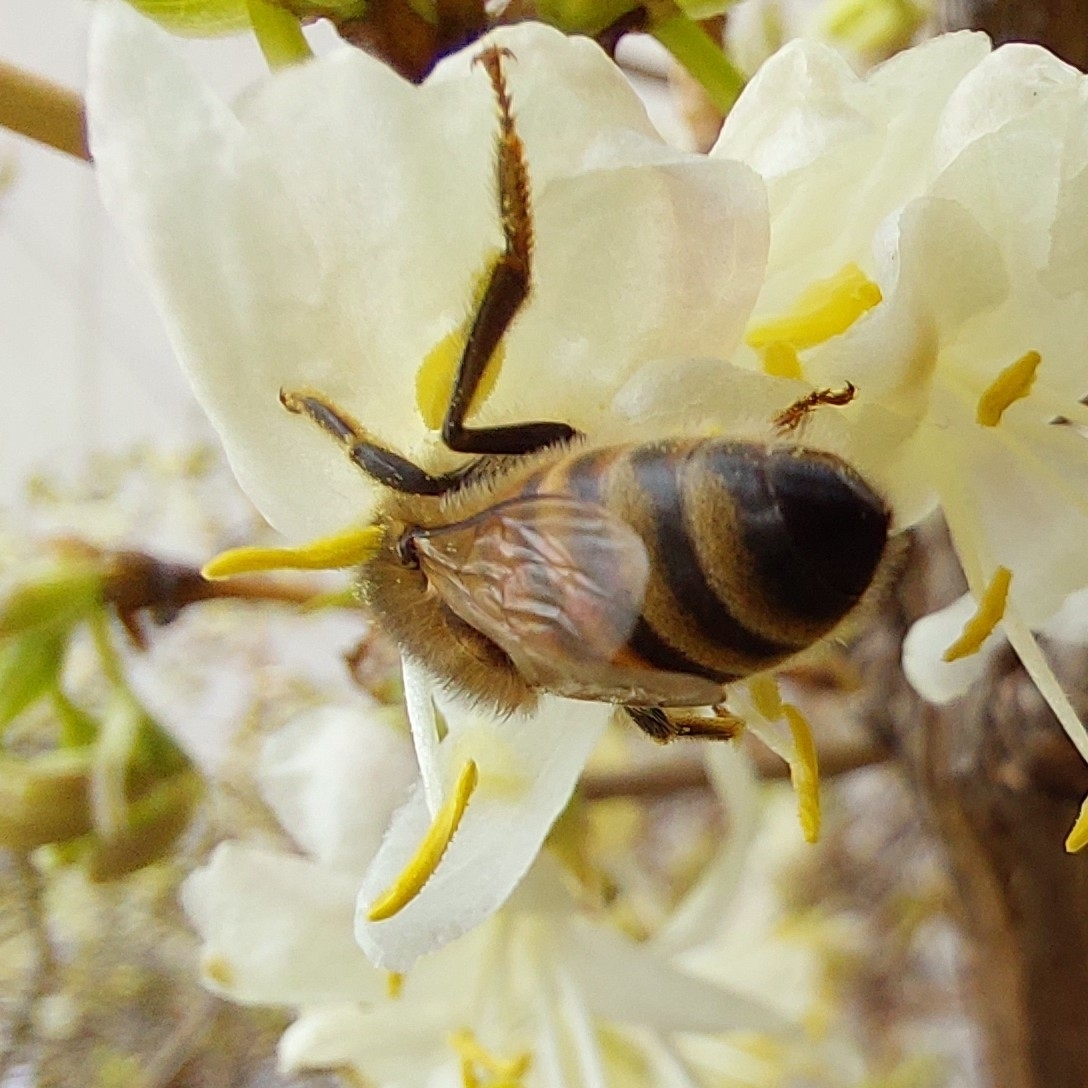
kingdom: Animalia
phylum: Arthropoda
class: Insecta
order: Hymenoptera
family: Apidae
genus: Apis
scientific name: Apis mellifera
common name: Honey bee
